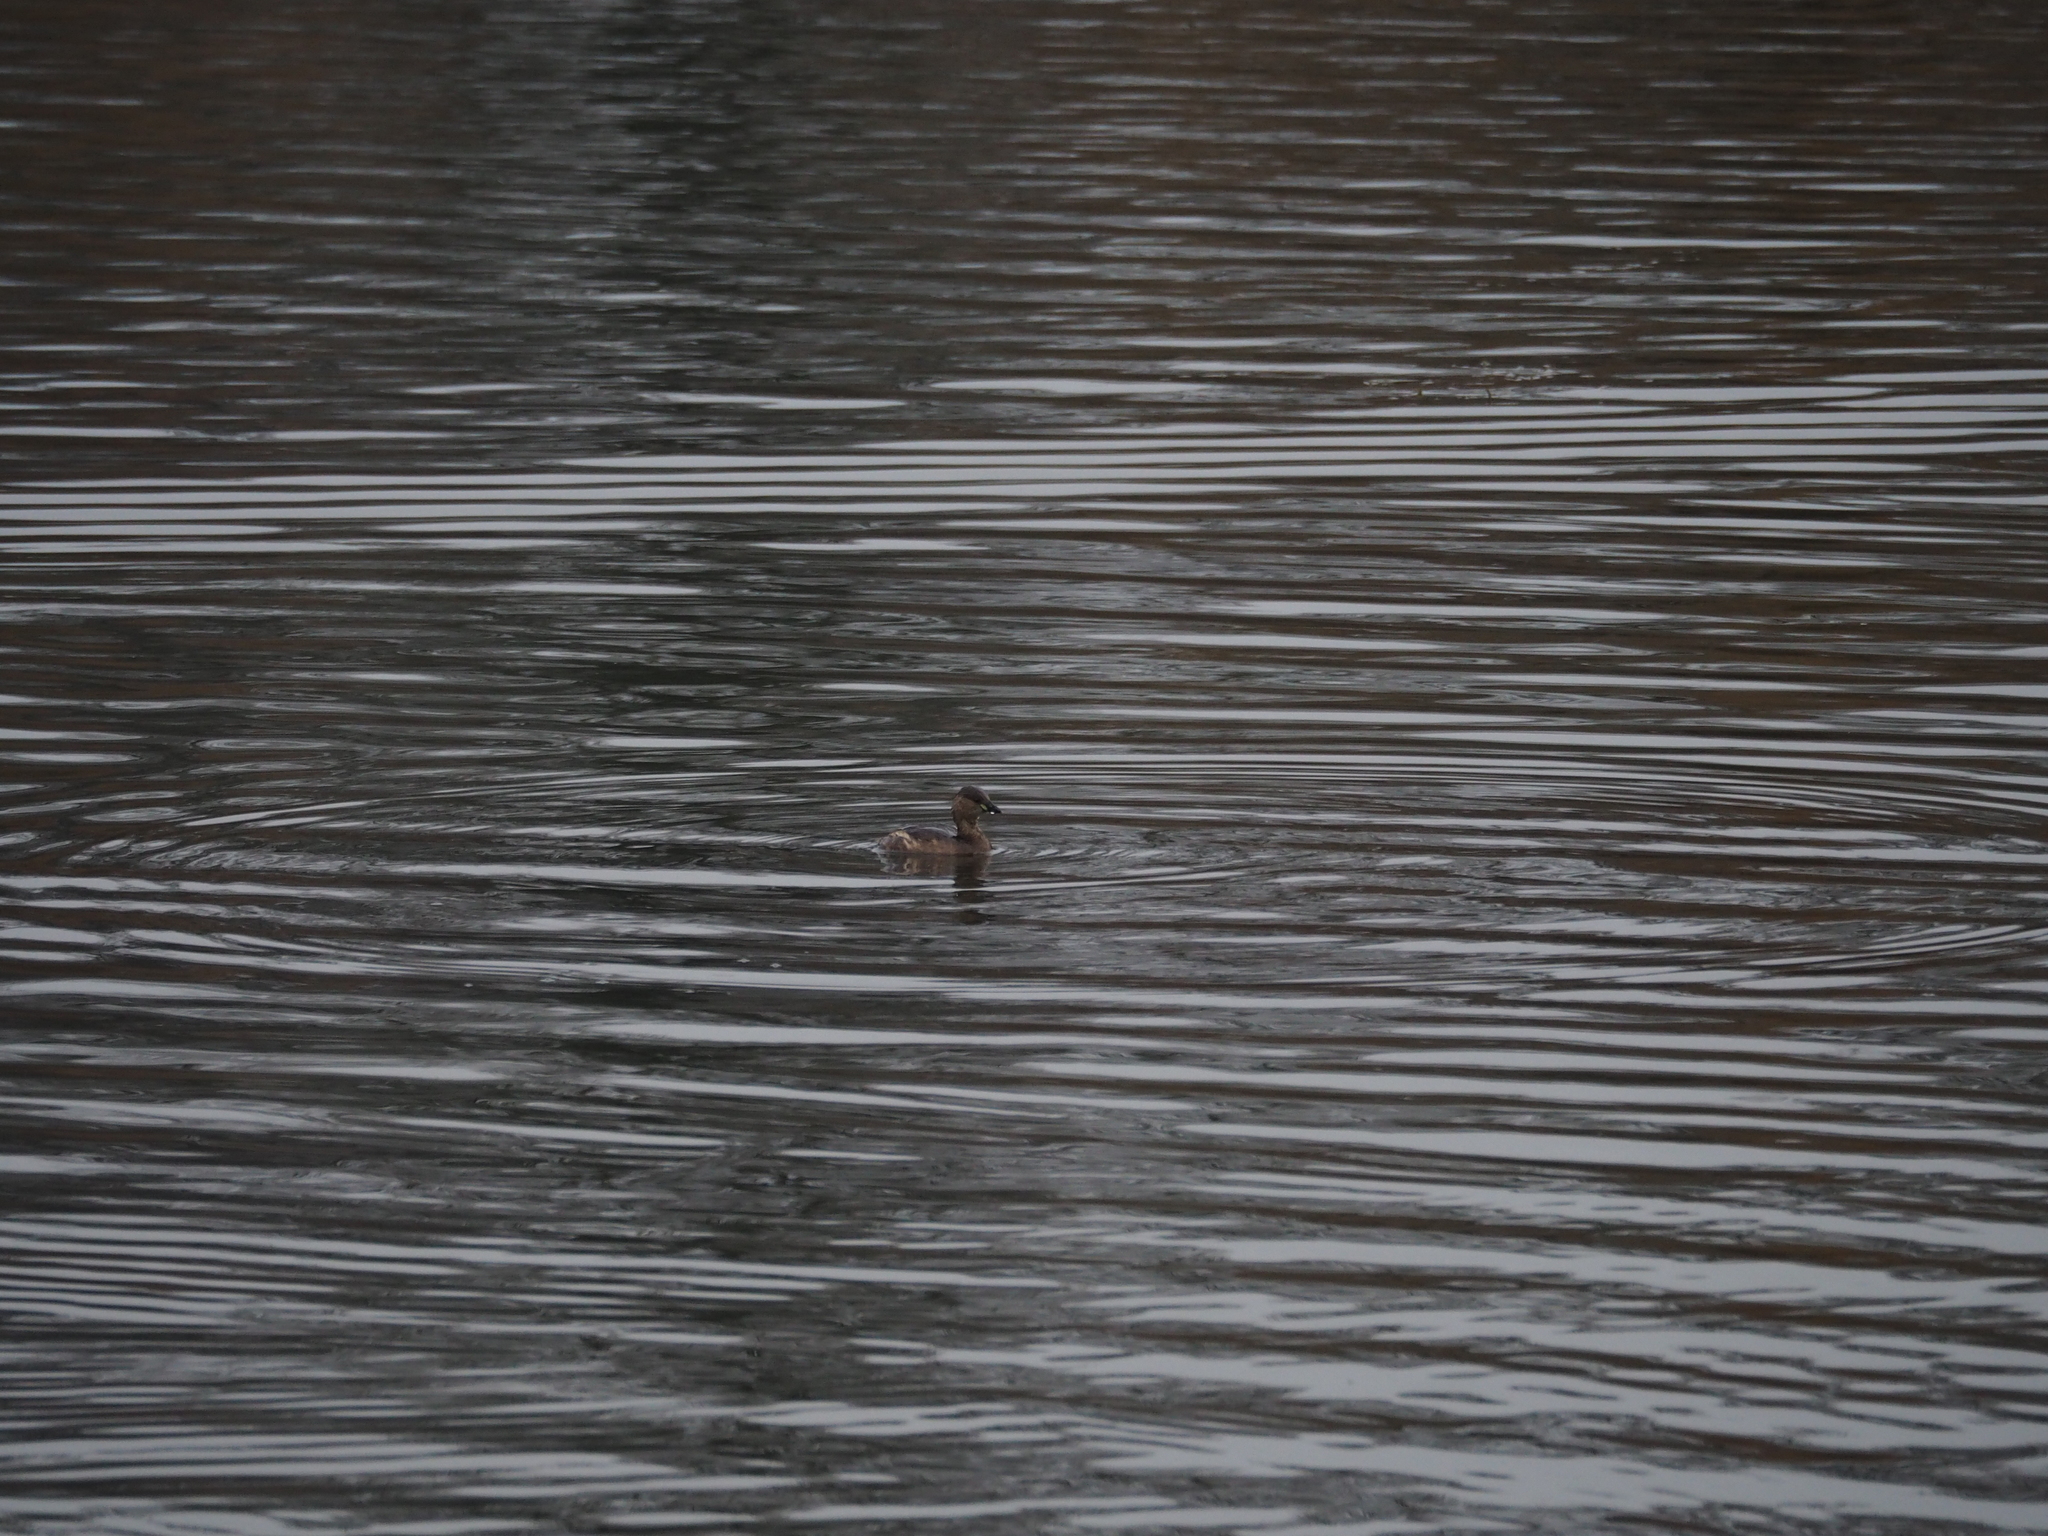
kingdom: Animalia
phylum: Chordata
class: Aves
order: Podicipediformes
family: Podicipedidae
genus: Tachybaptus
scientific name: Tachybaptus ruficollis
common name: Little grebe
